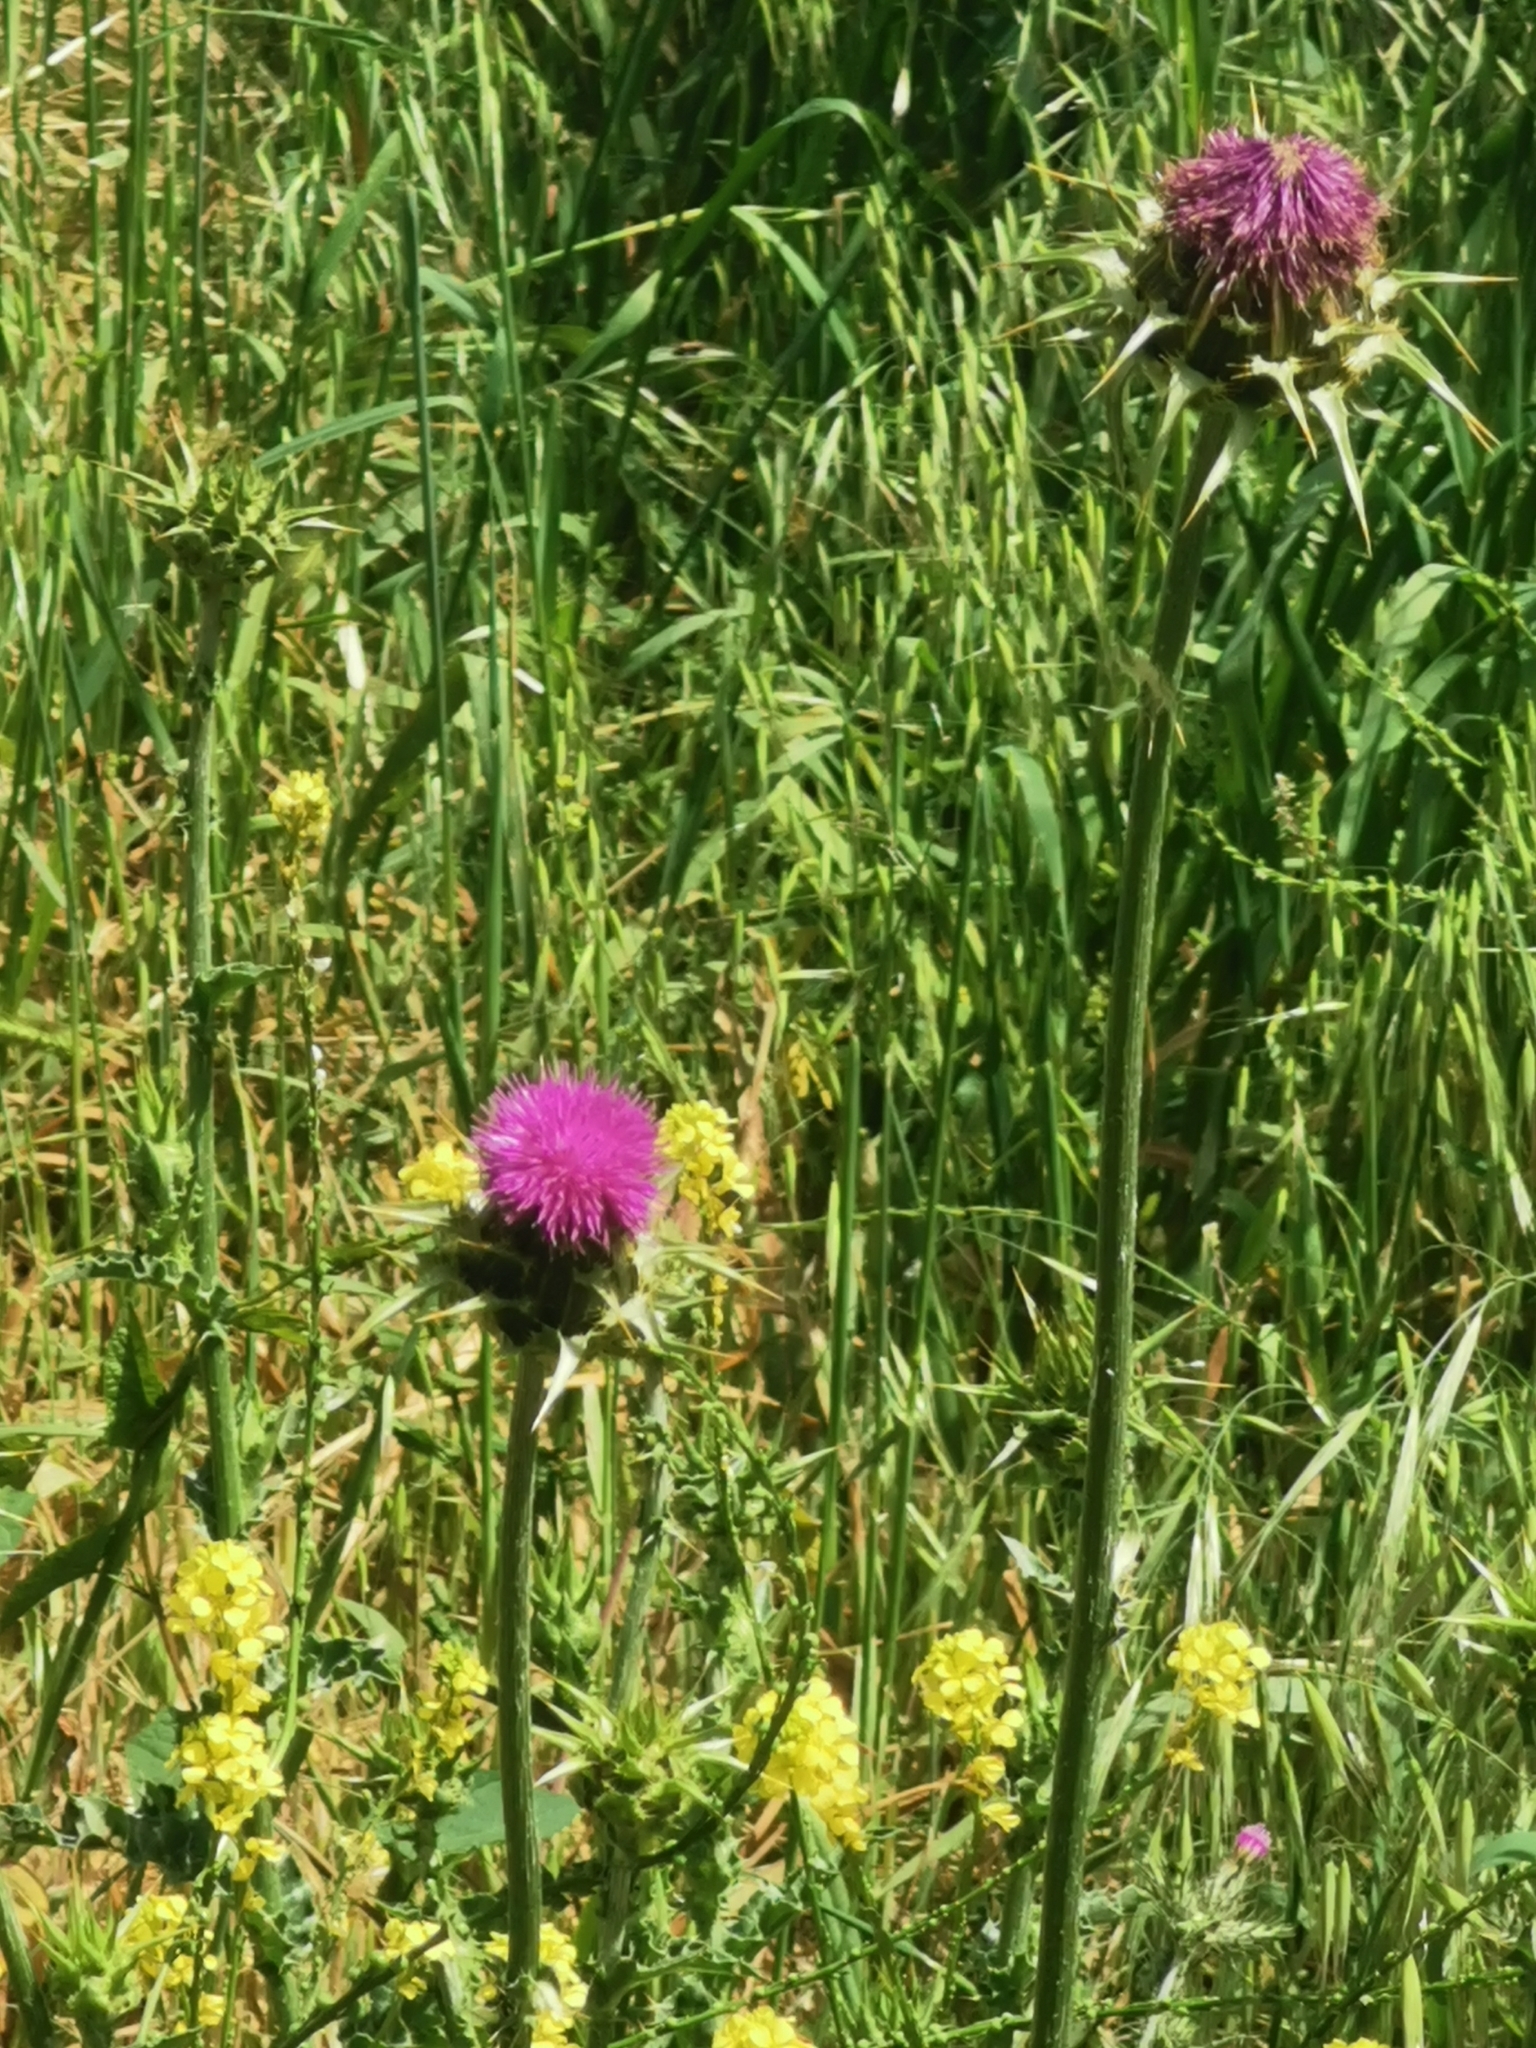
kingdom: Plantae
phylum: Tracheophyta
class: Magnoliopsida
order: Asterales
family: Asteraceae
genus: Silybum
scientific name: Silybum marianum
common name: Milk thistle
